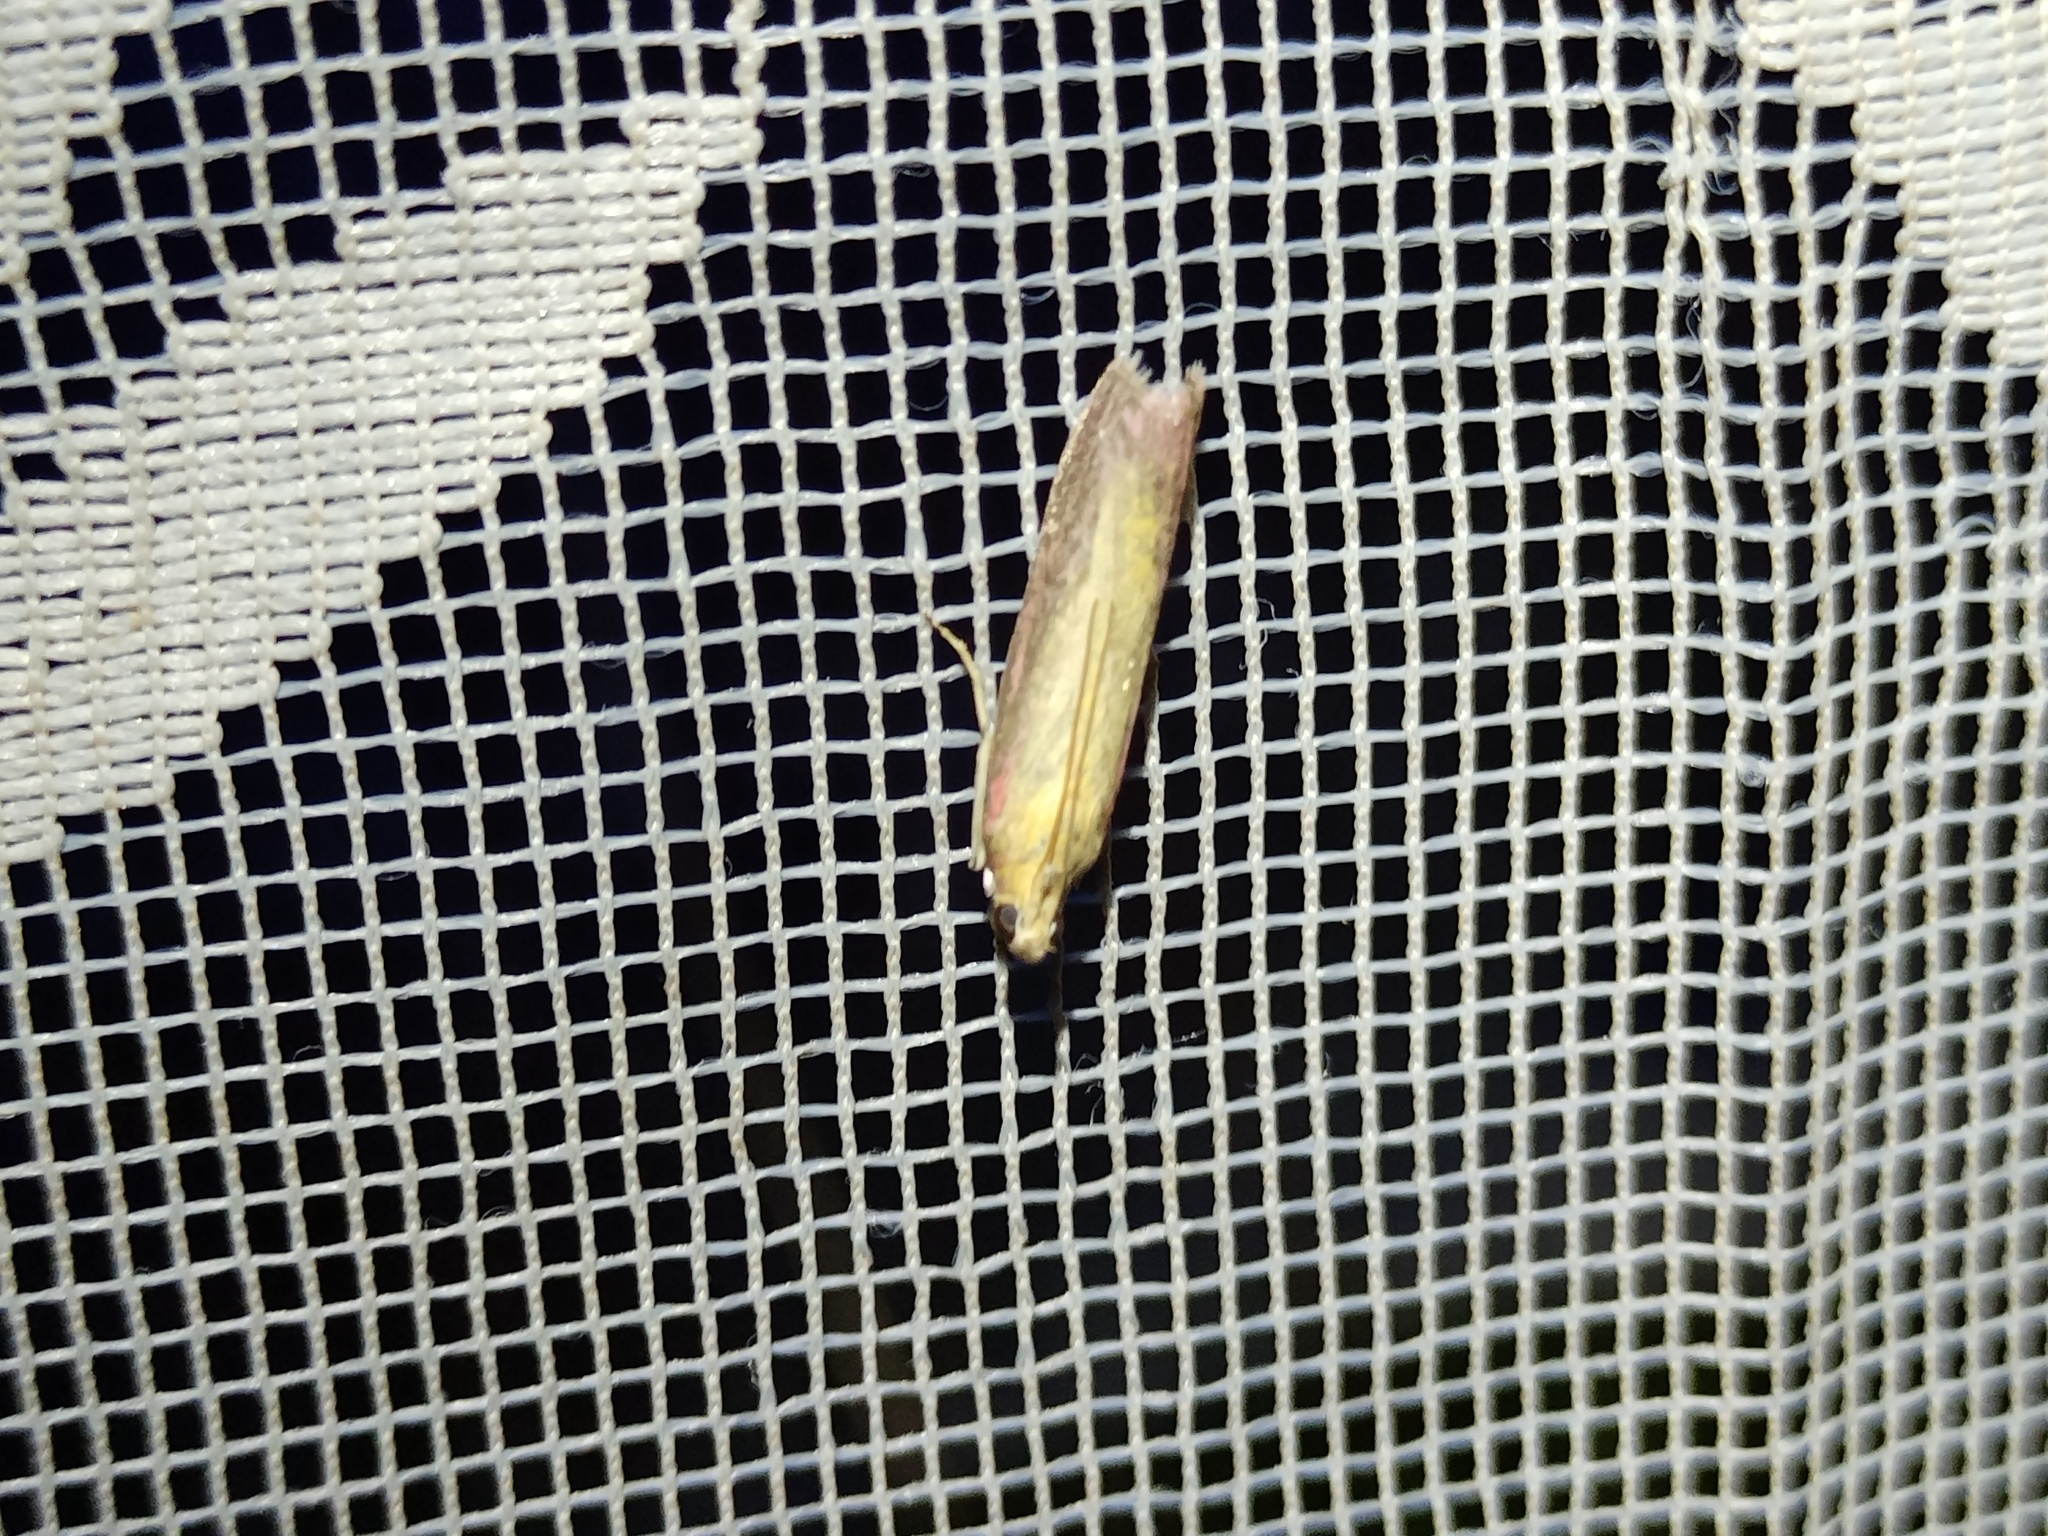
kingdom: Animalia
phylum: Arthropoda
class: Insecta
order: Lepidoptera
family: Pyralidae
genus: Oncocera
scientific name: Oncocera semirubella
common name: Rosy-striped knot-horn
